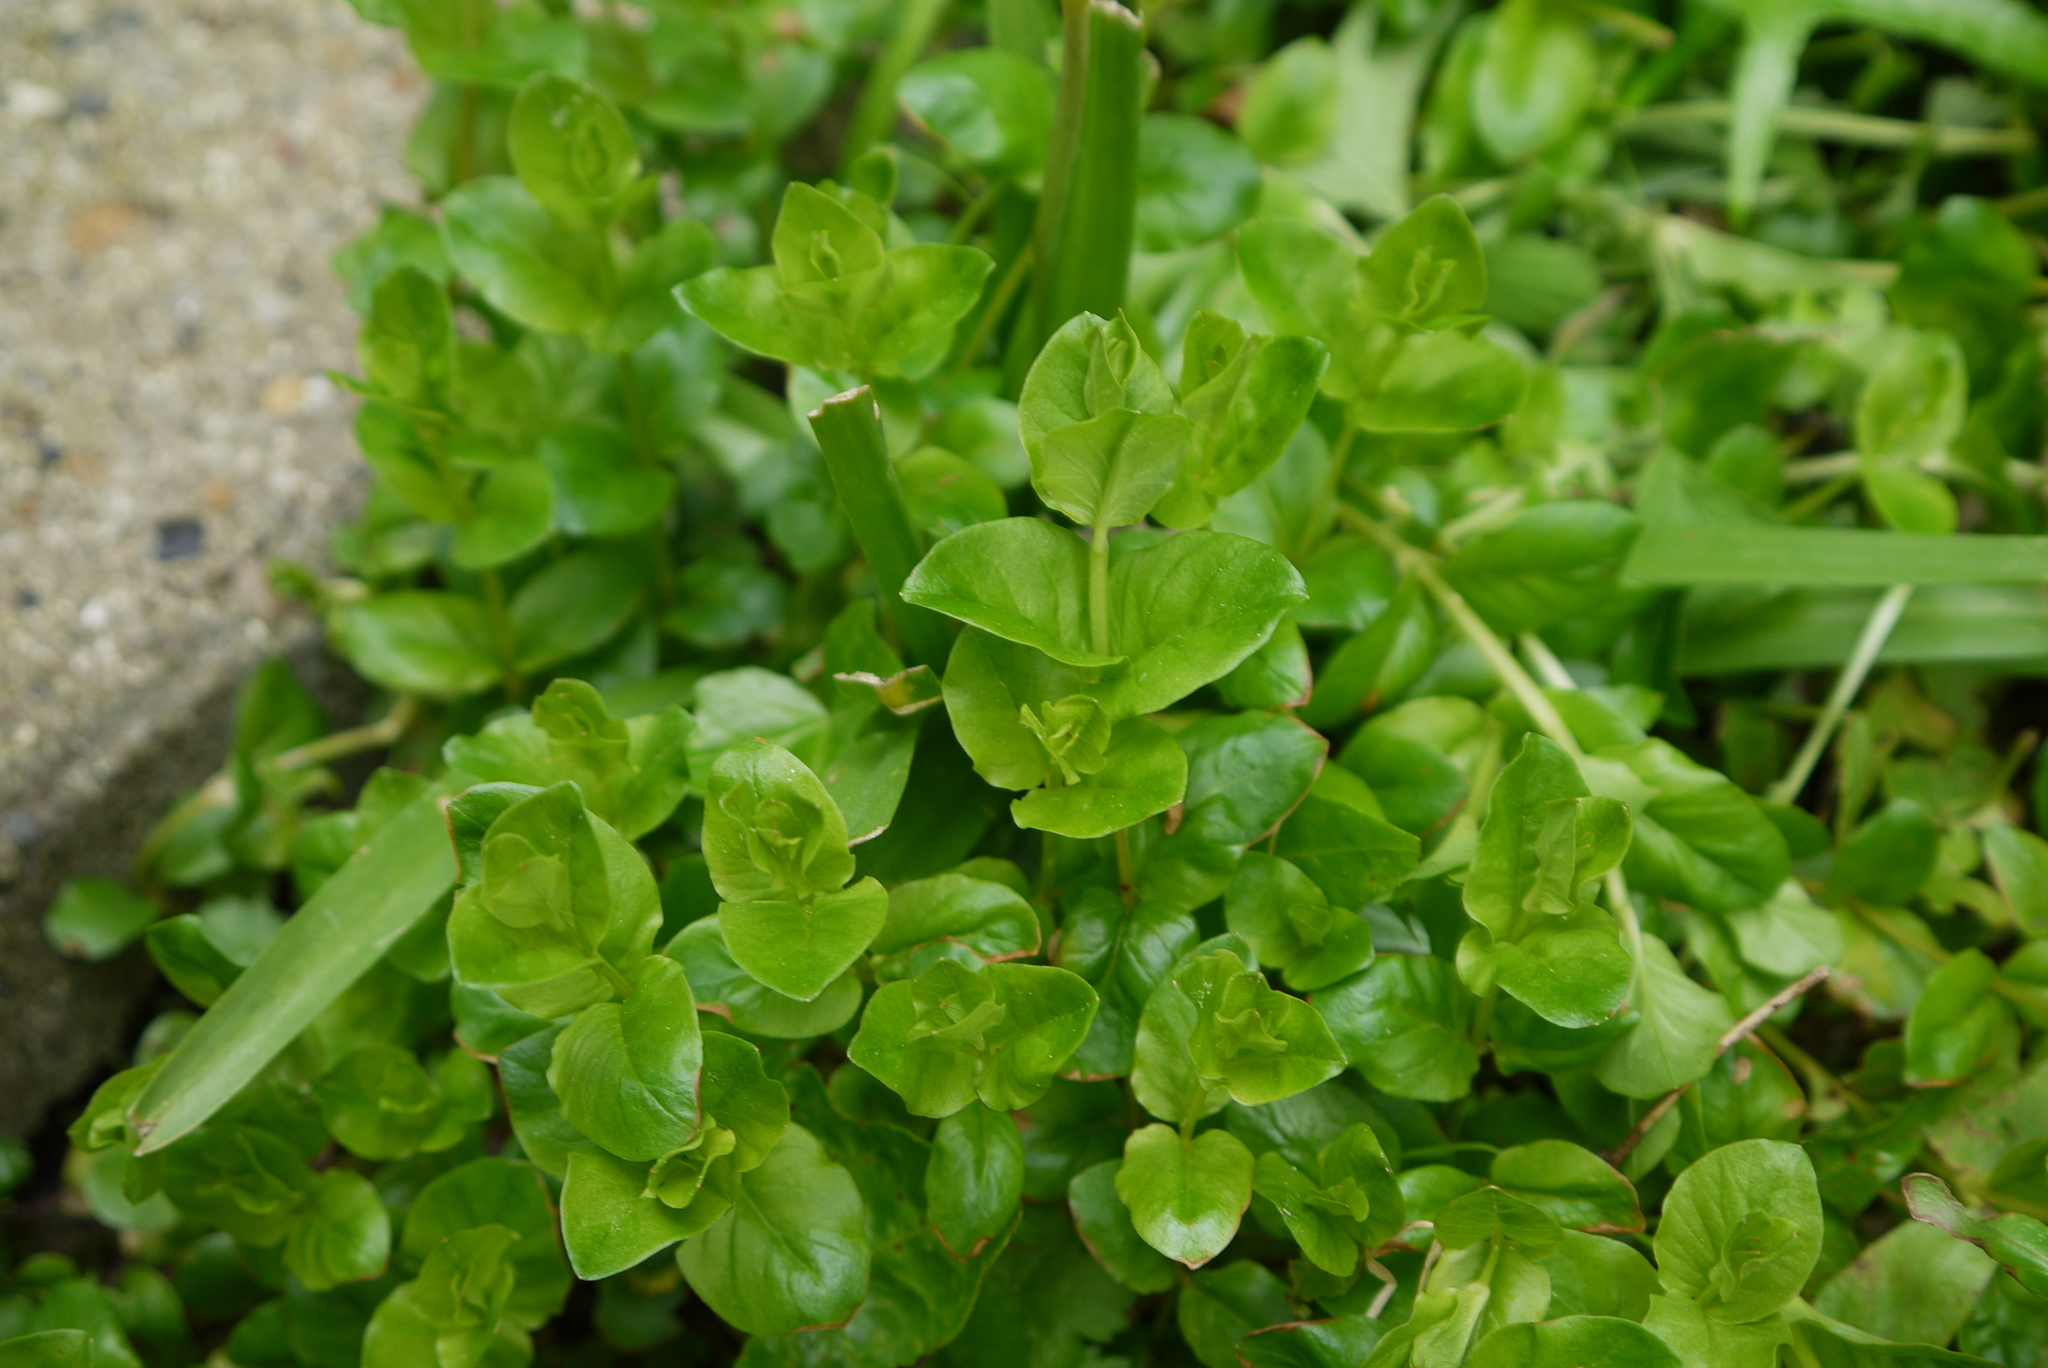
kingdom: Plantae
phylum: Tracheophyta
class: Magnoliopsida
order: Ericales
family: Primulaceae
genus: Lysimachia
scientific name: Lysimachia nummularia
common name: Moneywort
